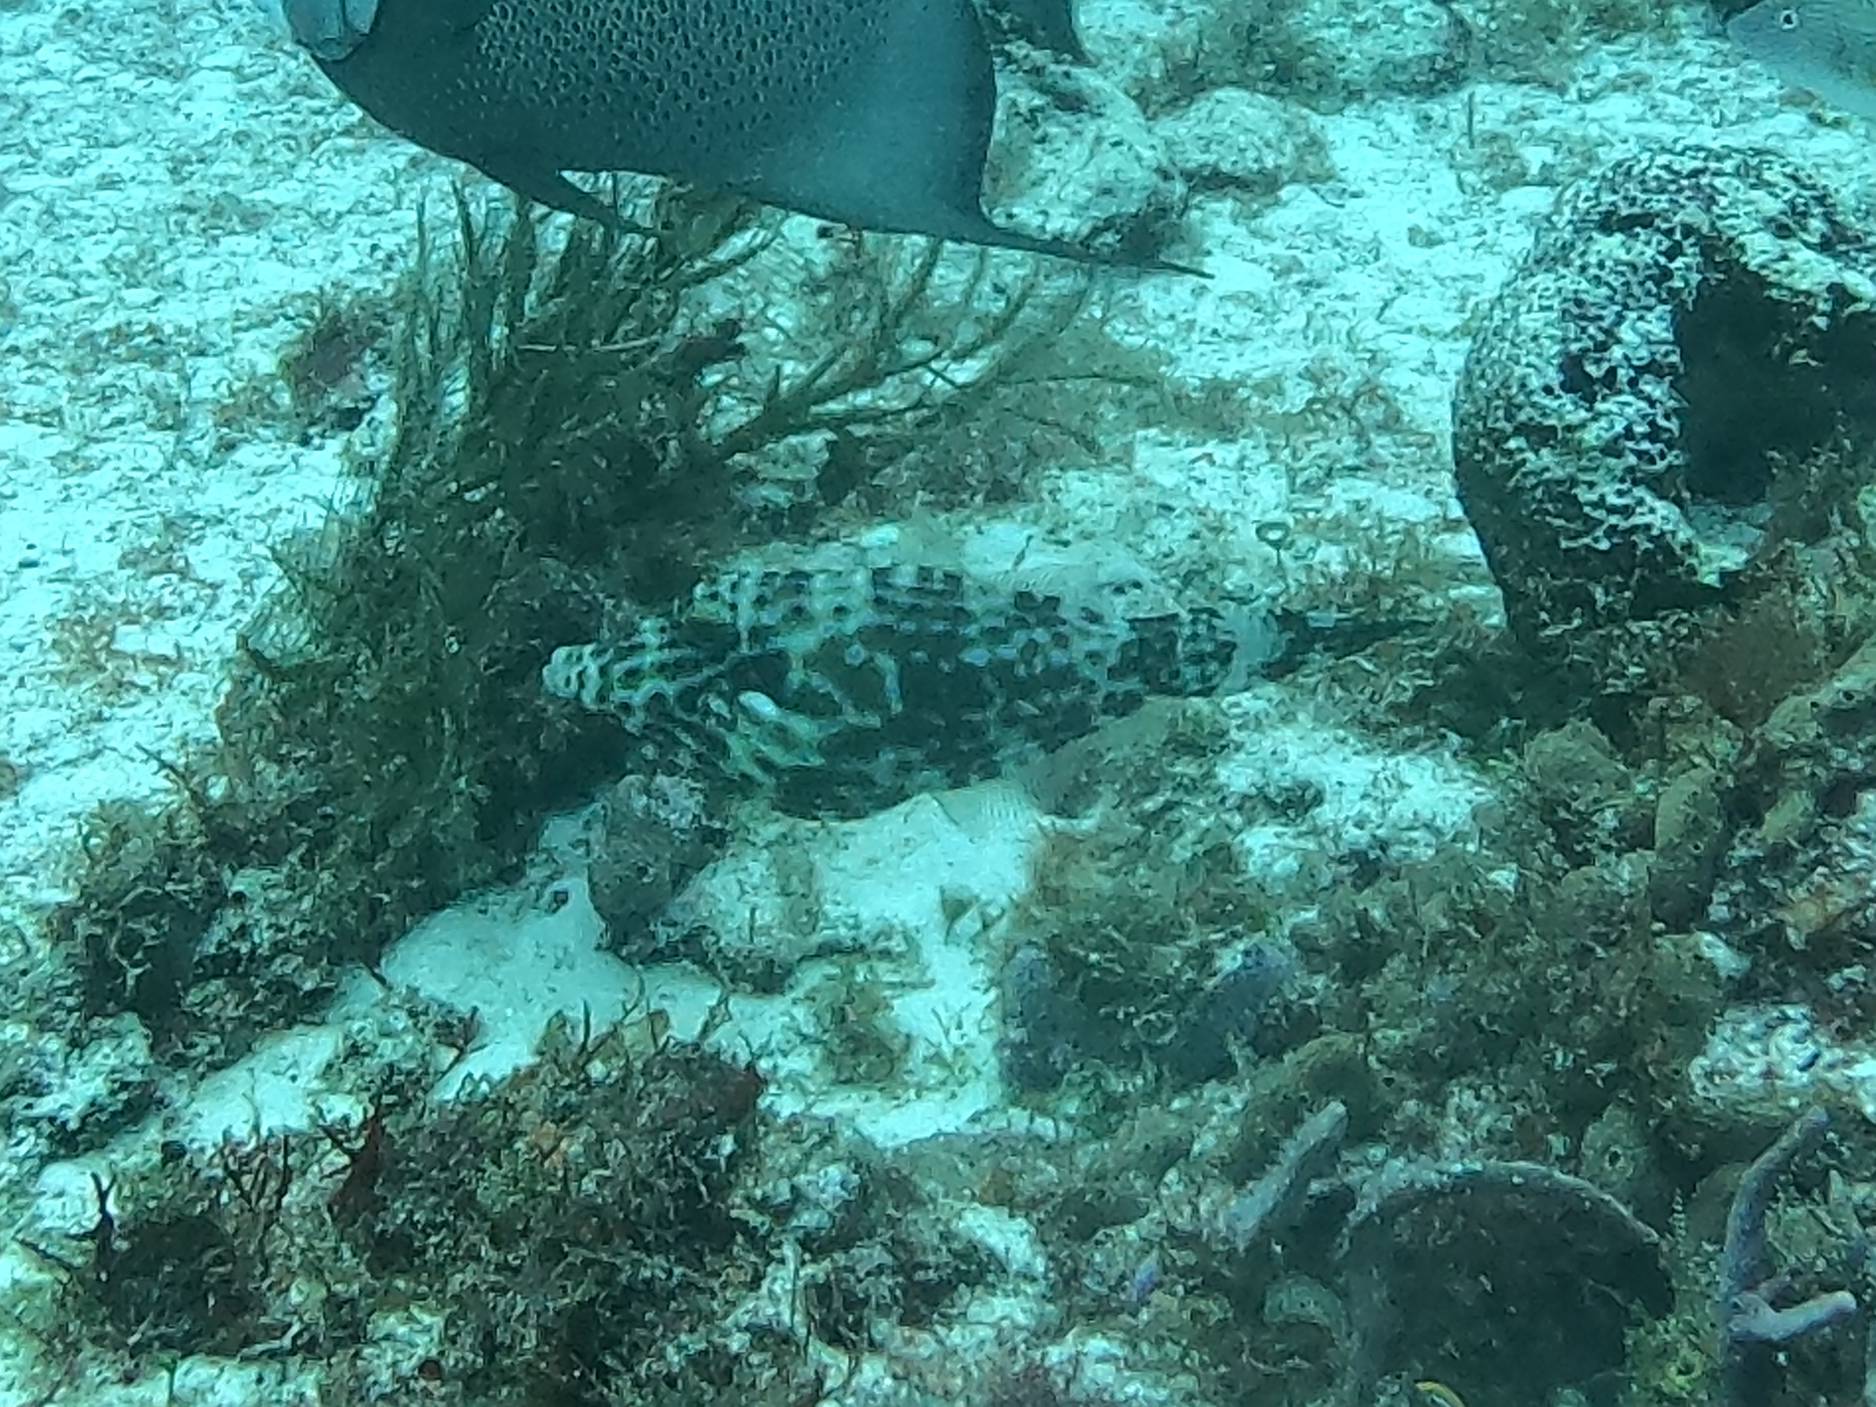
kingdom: Animalia
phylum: Chordata
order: Tetraodontiformes
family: Monacanthidae
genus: Aluterus
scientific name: Aluterus scriptus
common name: Scribbled leatherjacket filefish
